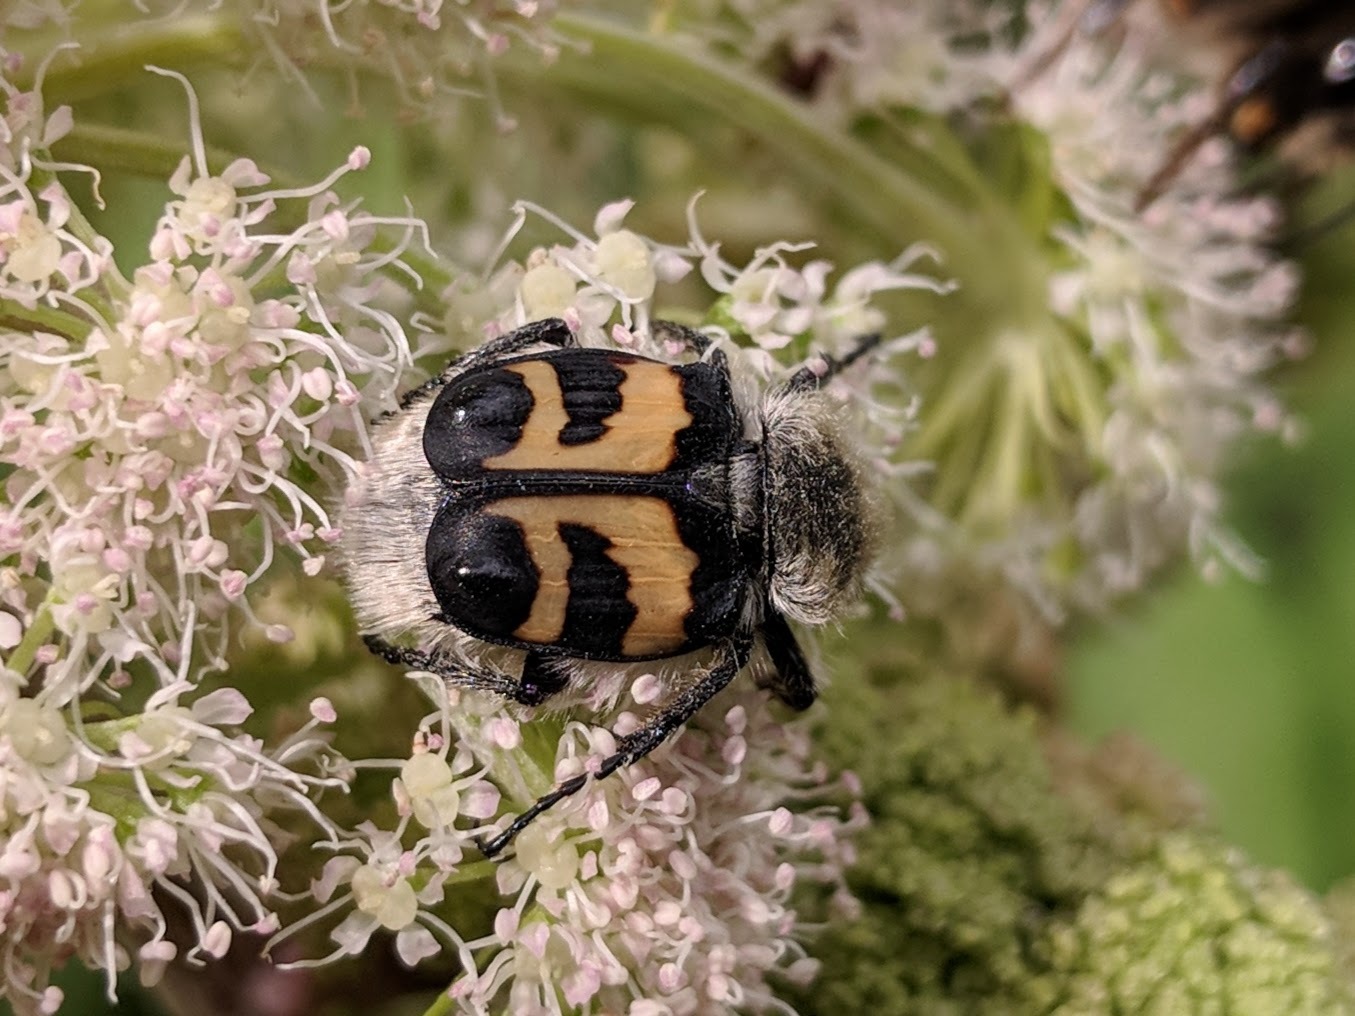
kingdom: Animalia
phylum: Arthropoda
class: Insecta
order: Coleoptera
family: Scarabaeidae
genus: Trichius
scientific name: Trichius fasciatus
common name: Bee beetle
